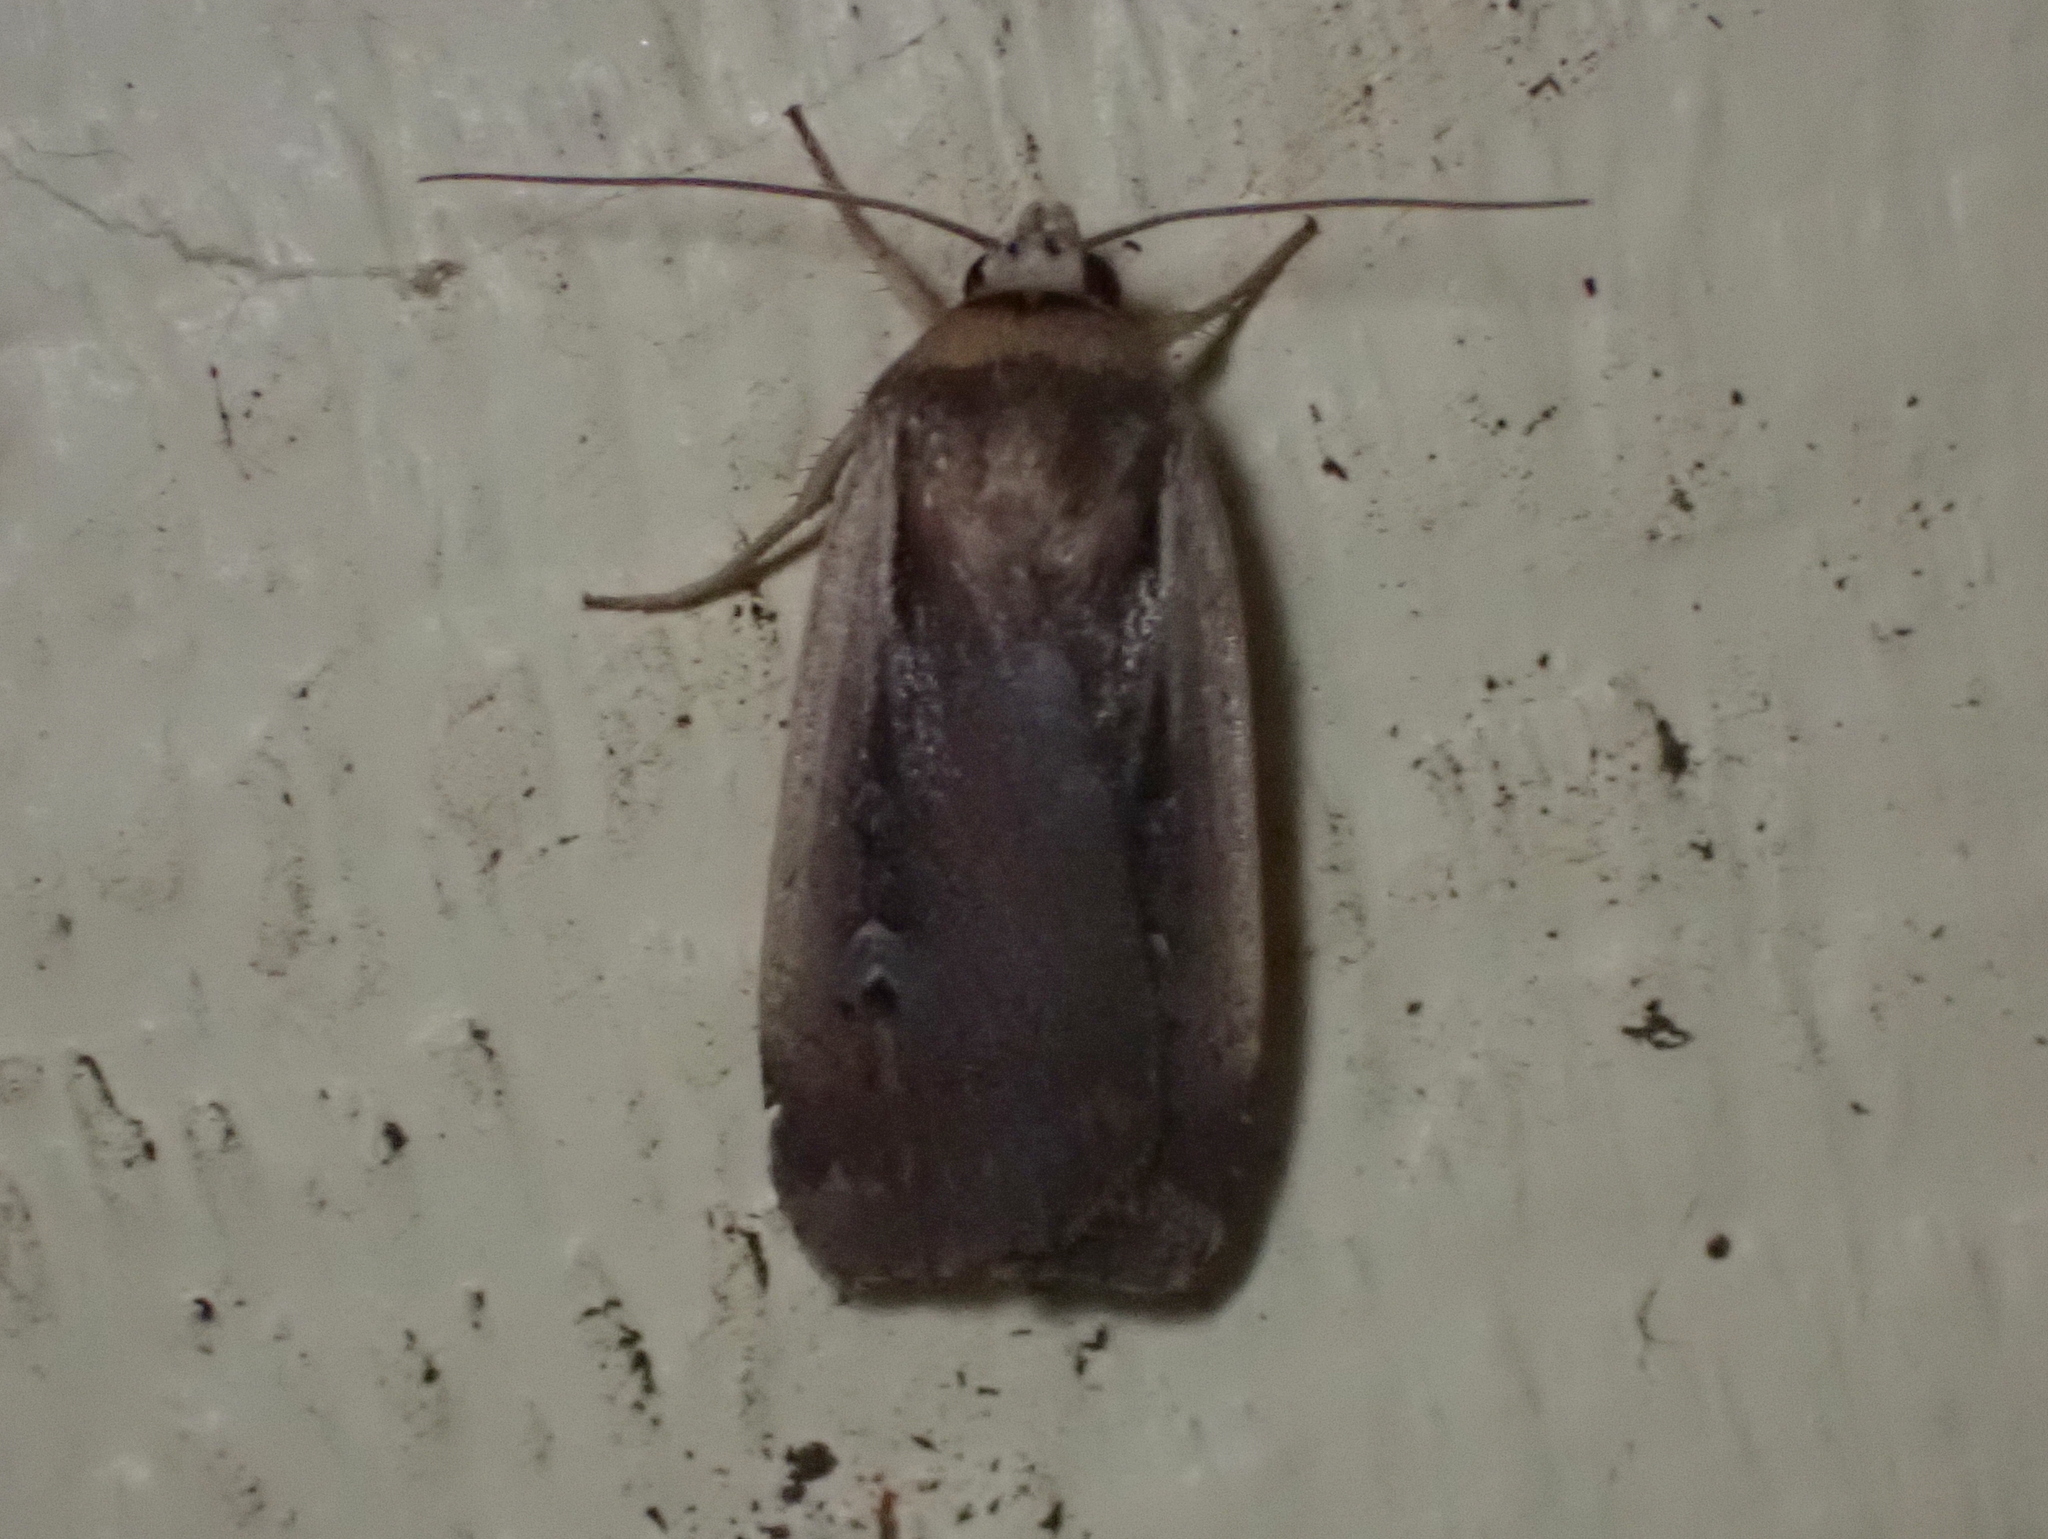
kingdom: Animalia
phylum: Arthropoda
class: Insecta
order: Lepidoptera
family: Noctuidae
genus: Ochropleura
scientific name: Ochropleura implecta
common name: Flame-shouldered dart
